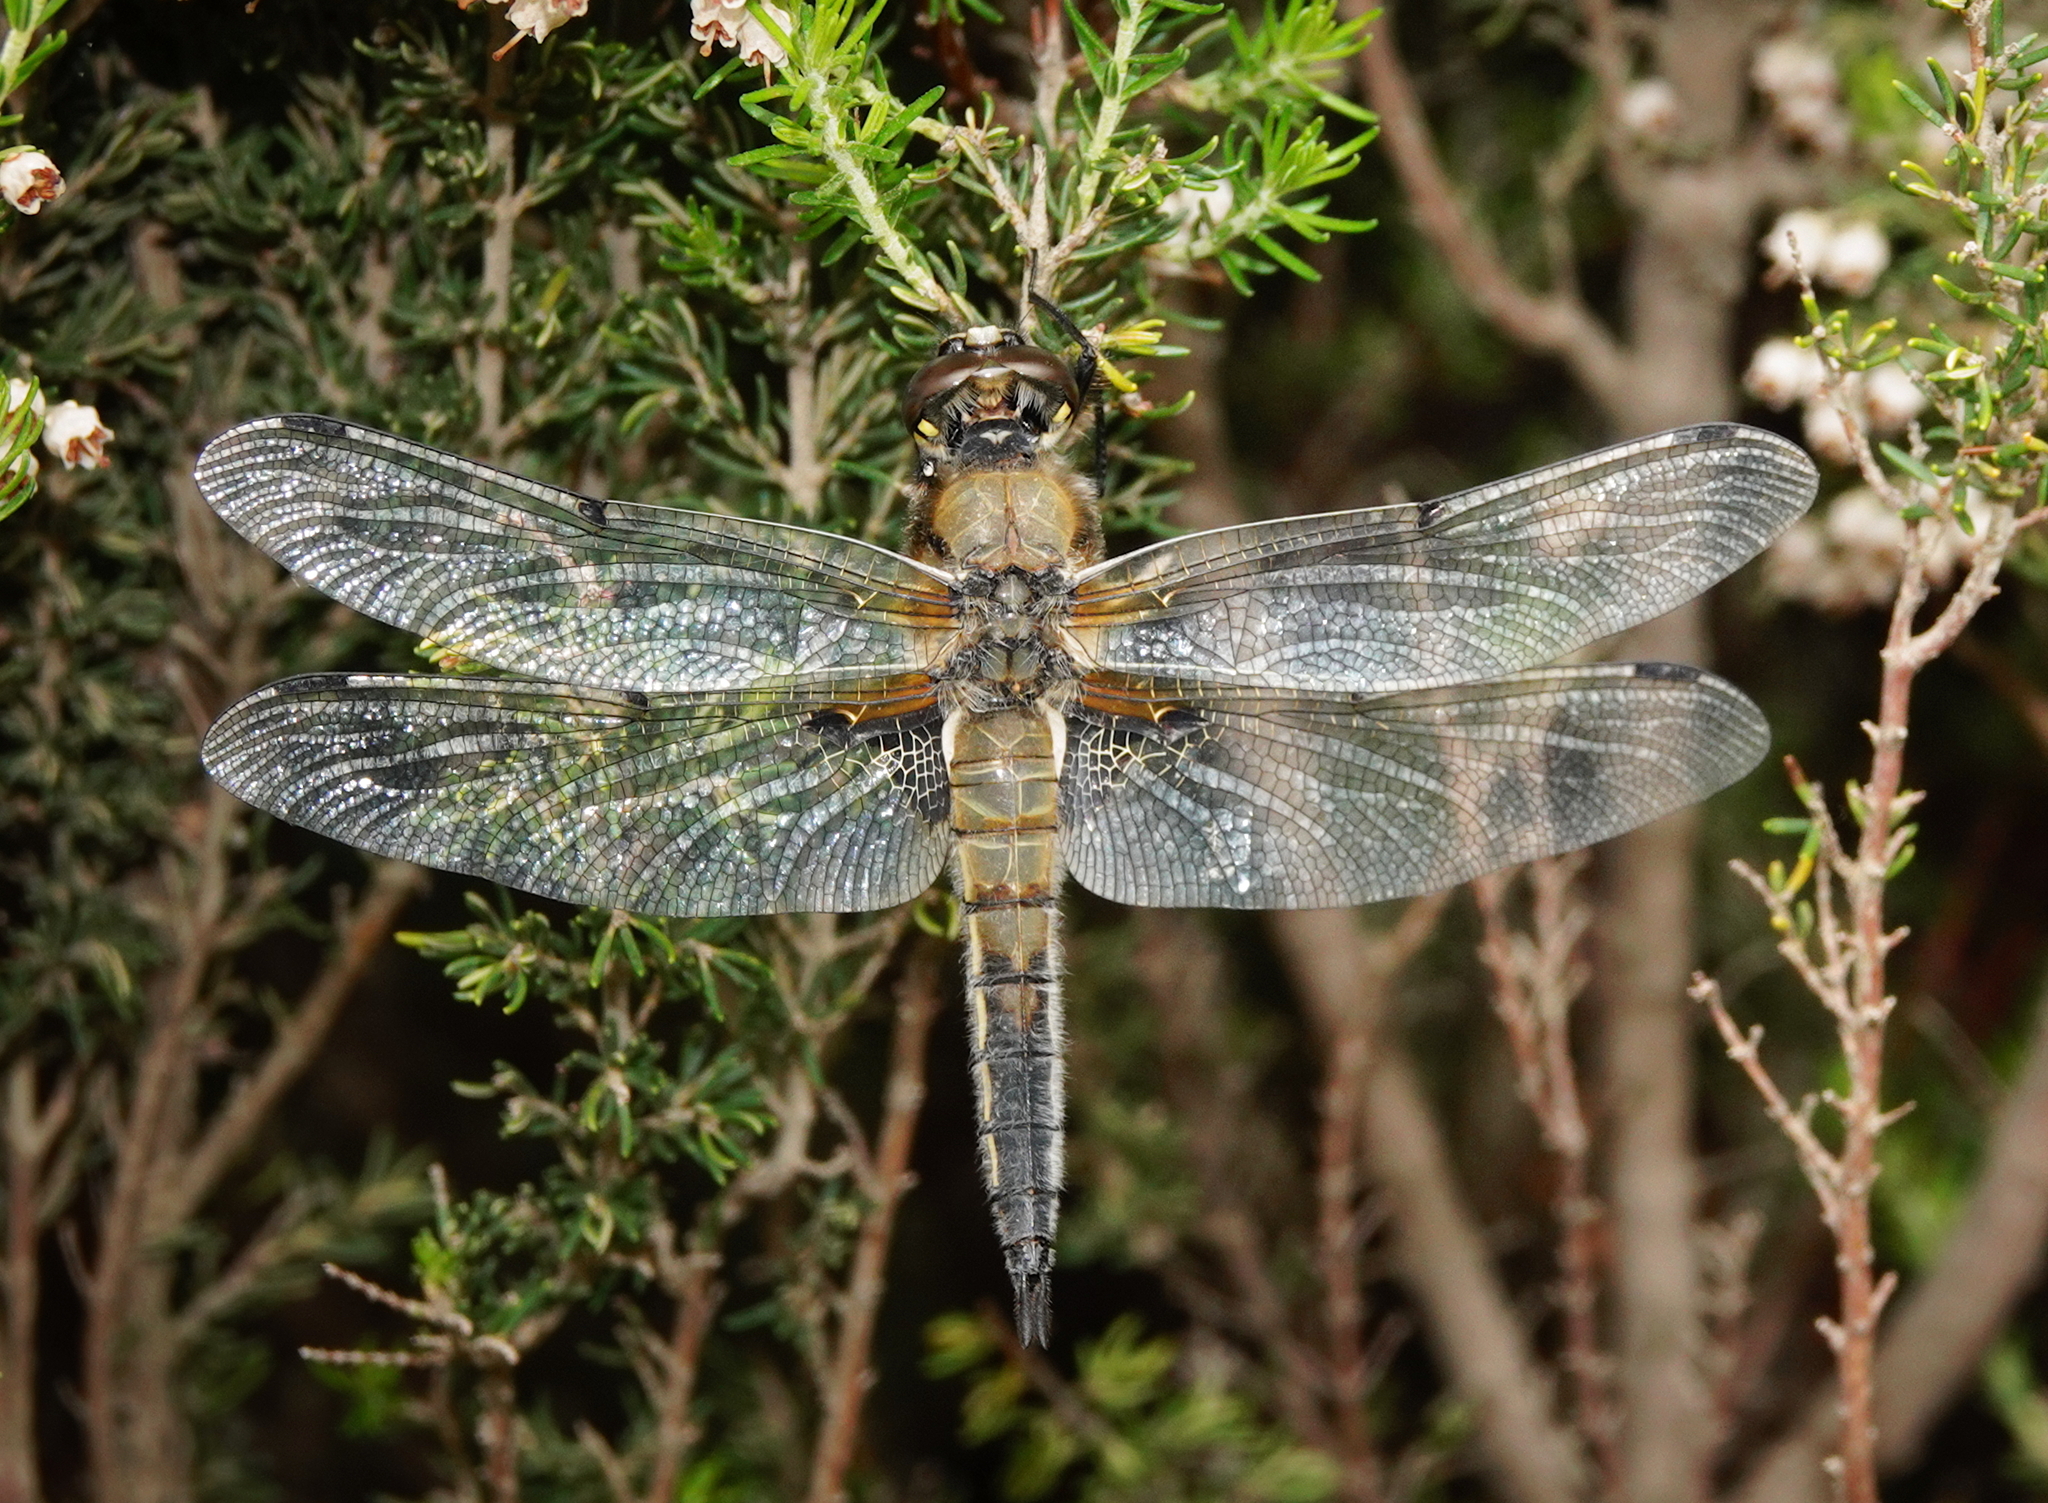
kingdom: Animalia
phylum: Arthropoda
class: Insecta
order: Odonata
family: Libellulidae
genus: Libellula
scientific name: Libellula quadrimaculata
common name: Four-spotted chaser
